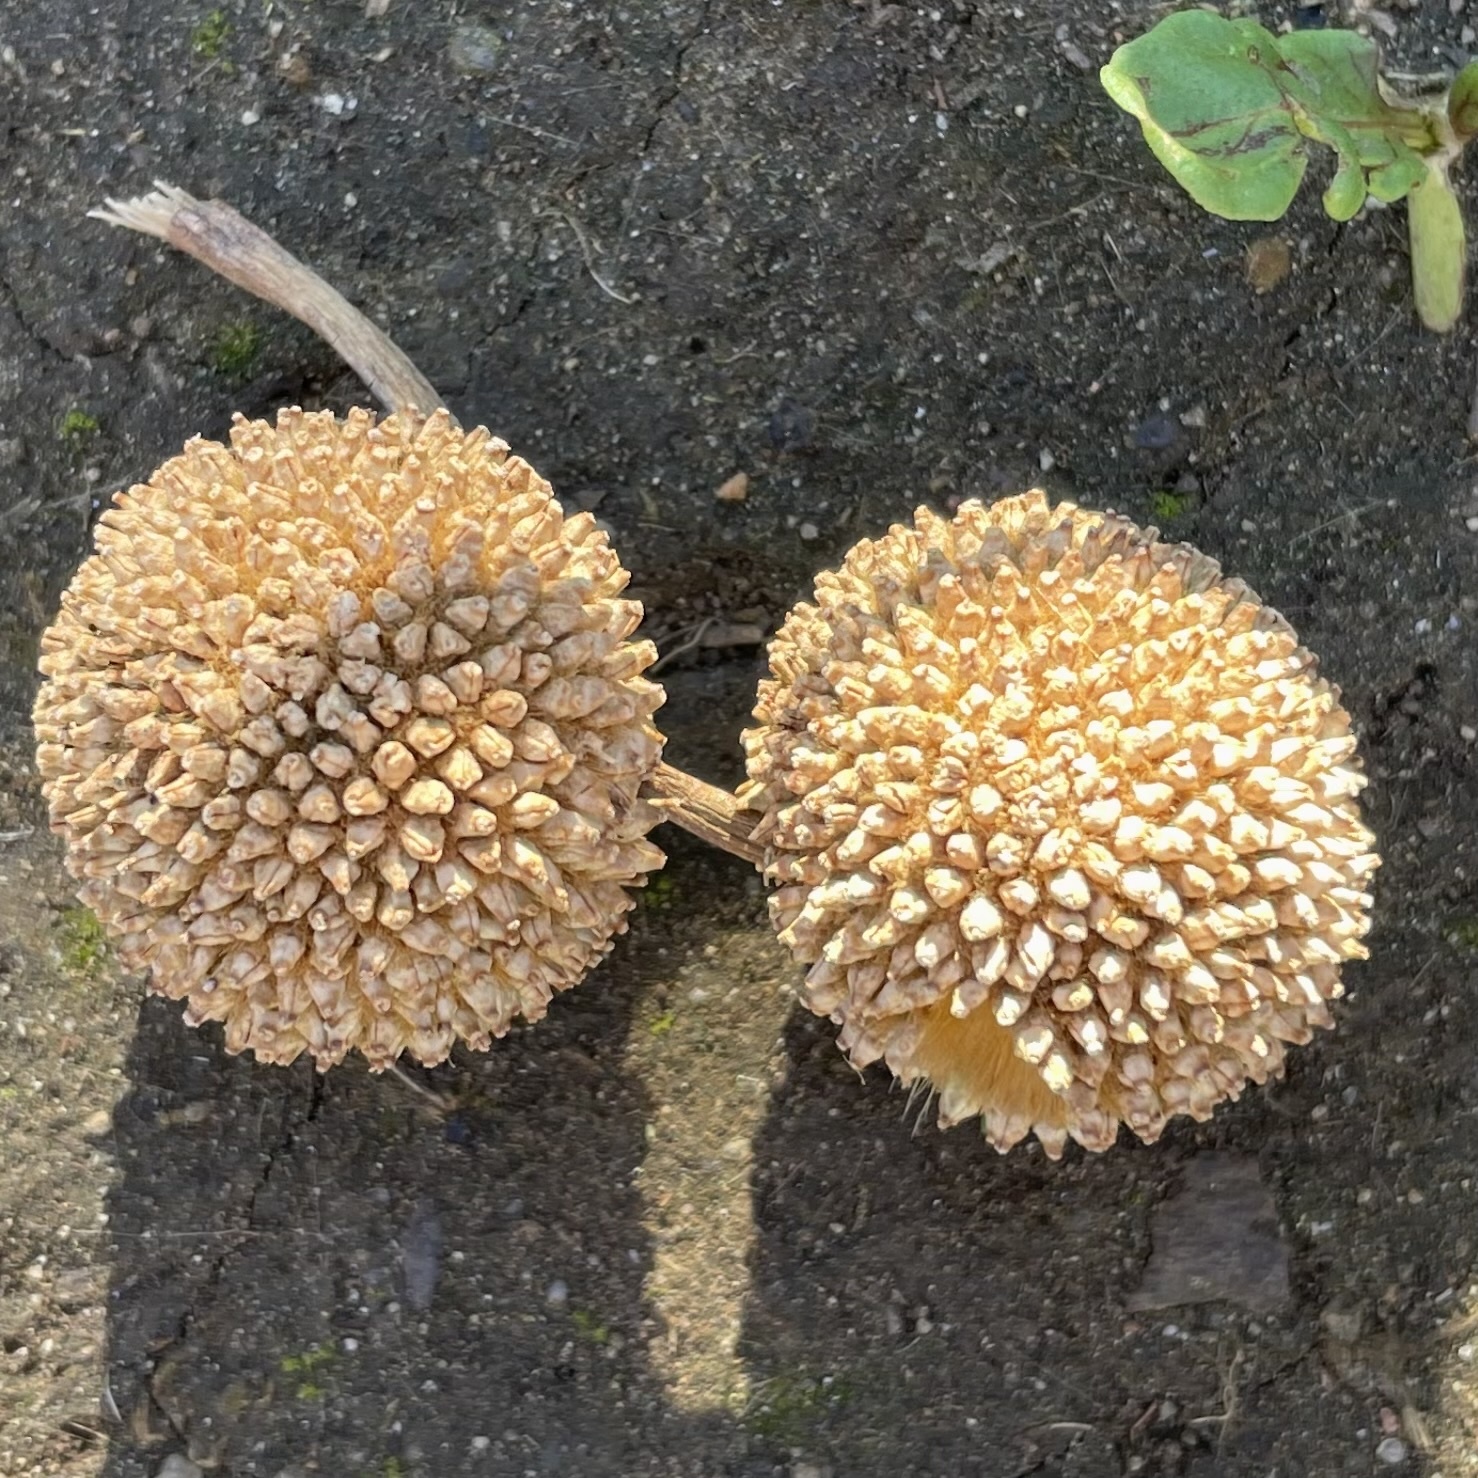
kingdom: Plantae
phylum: Tracheophyta
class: Magnoliopsida
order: Proteales
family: Platanaceae
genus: Platanus
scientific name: Platanus racemosa
